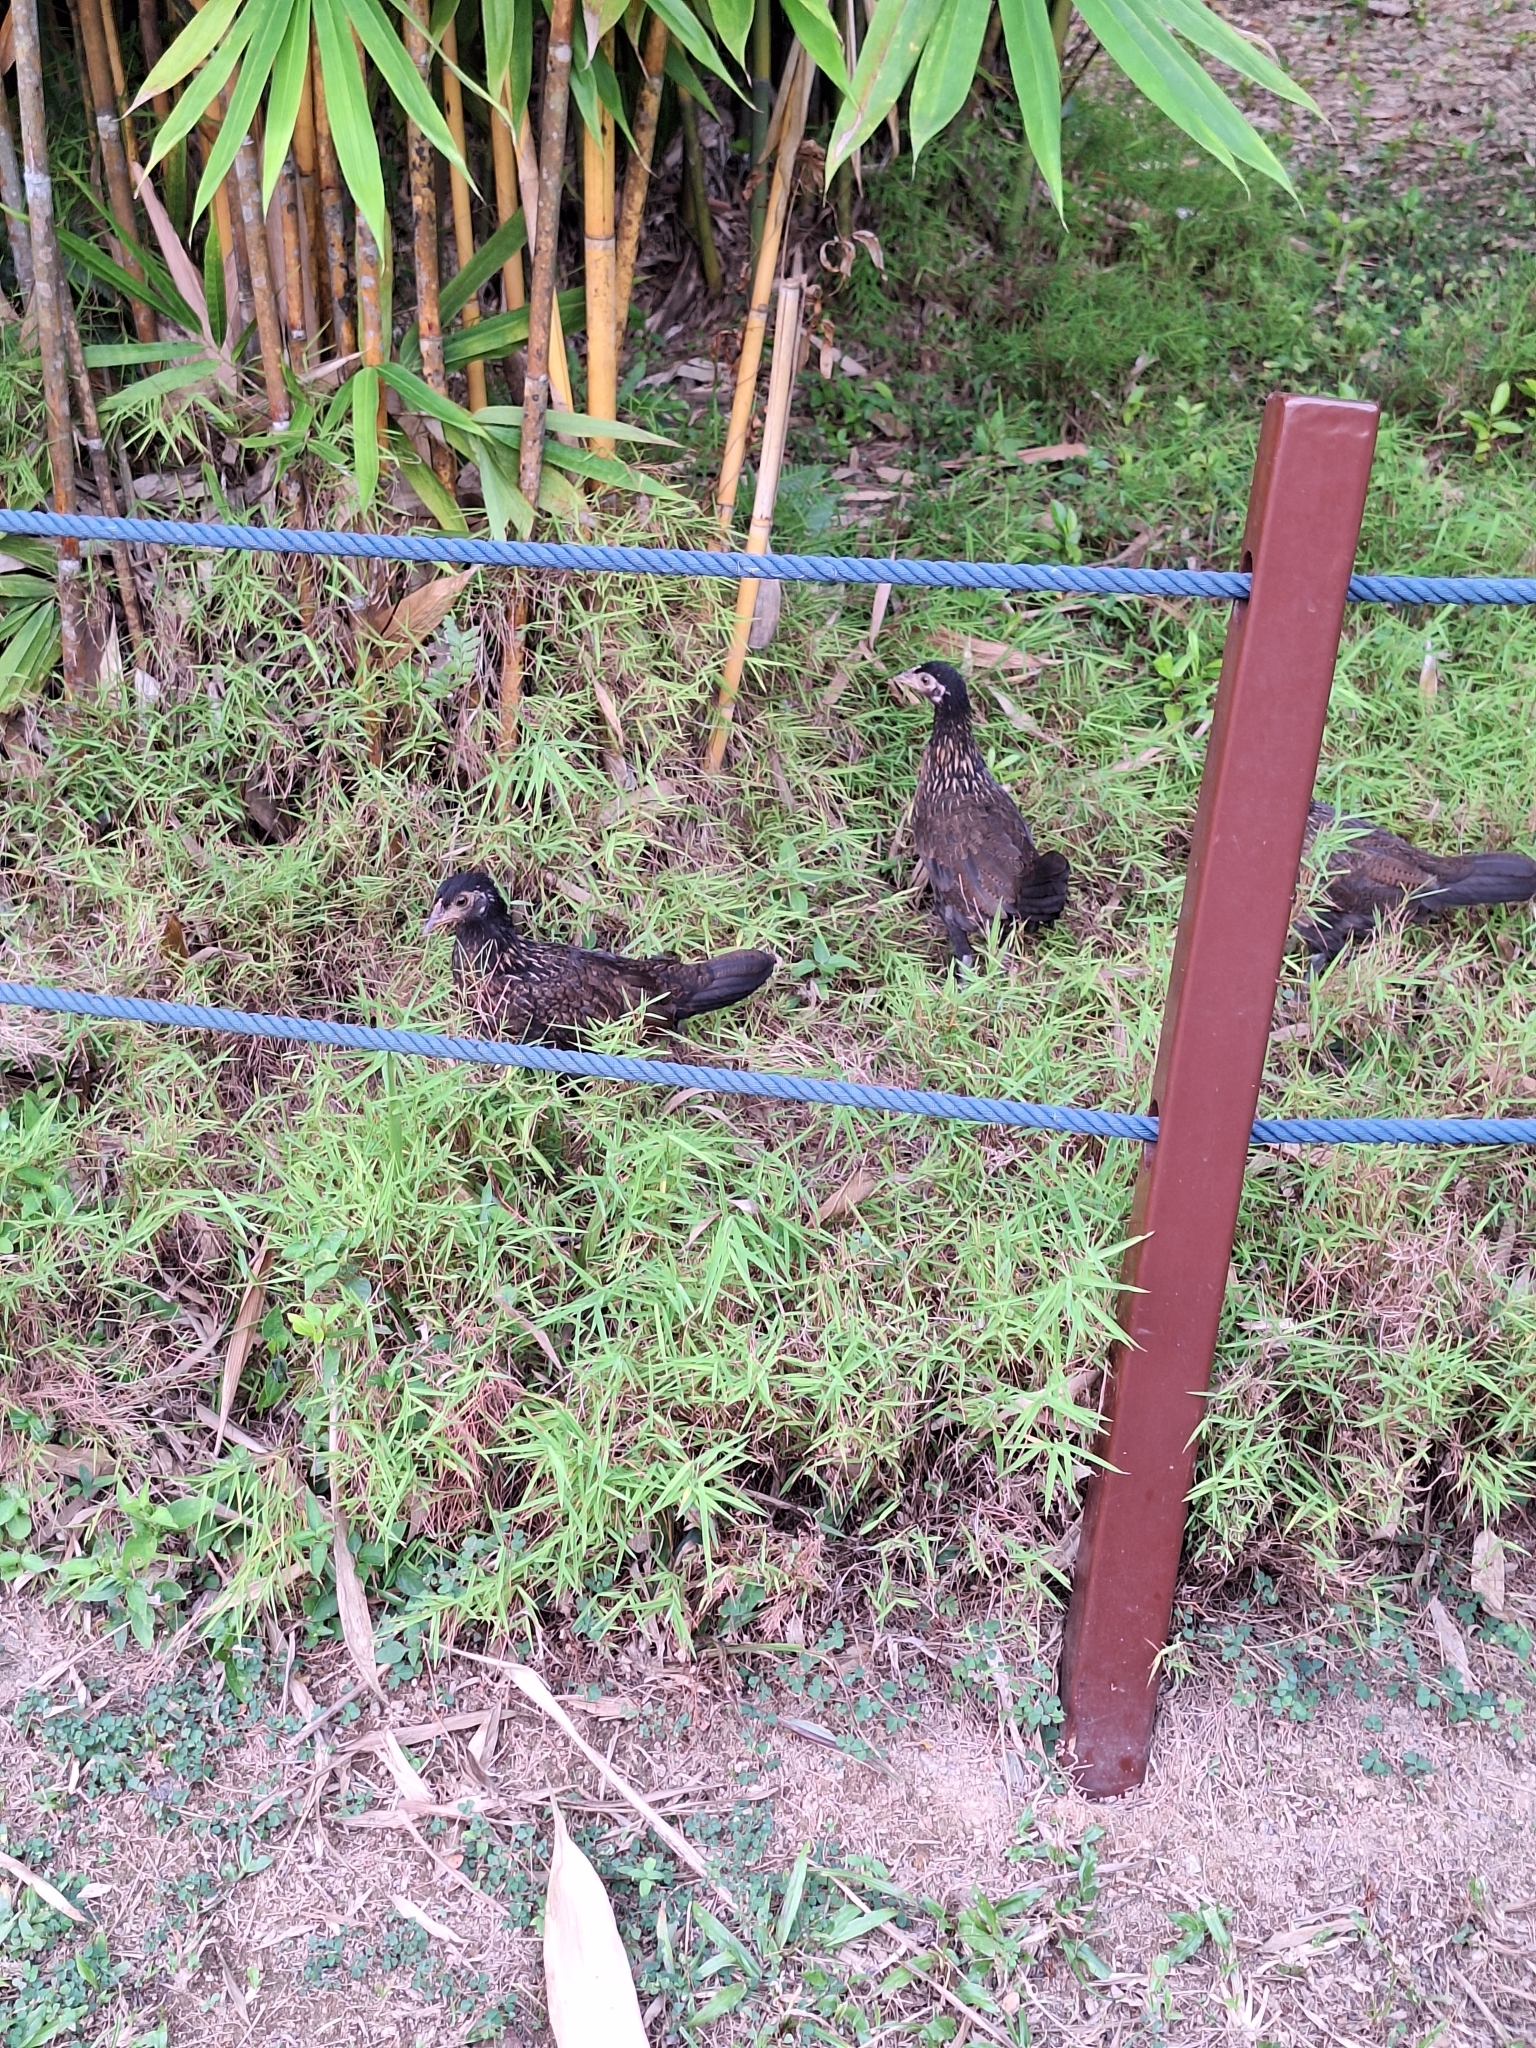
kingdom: Animalia
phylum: Chordata
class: Aves
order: Galliformes
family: Phasianidae
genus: Gallus
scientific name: Gallus gallus
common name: Red junglefowl
